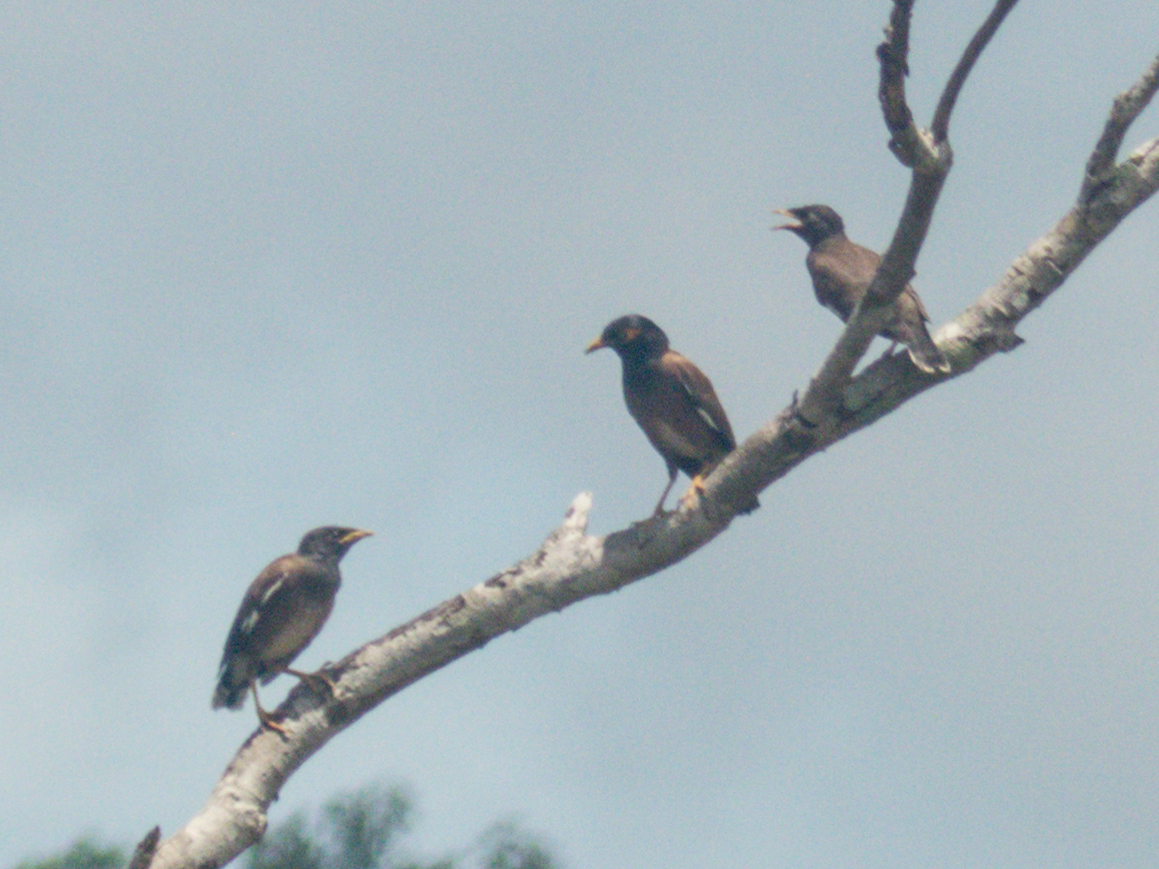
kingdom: Animalia
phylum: Chordata
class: Aves
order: Passeriformes
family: Sturnidae
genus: Acridotheres
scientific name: Acridotheres tristis
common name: Common myna
